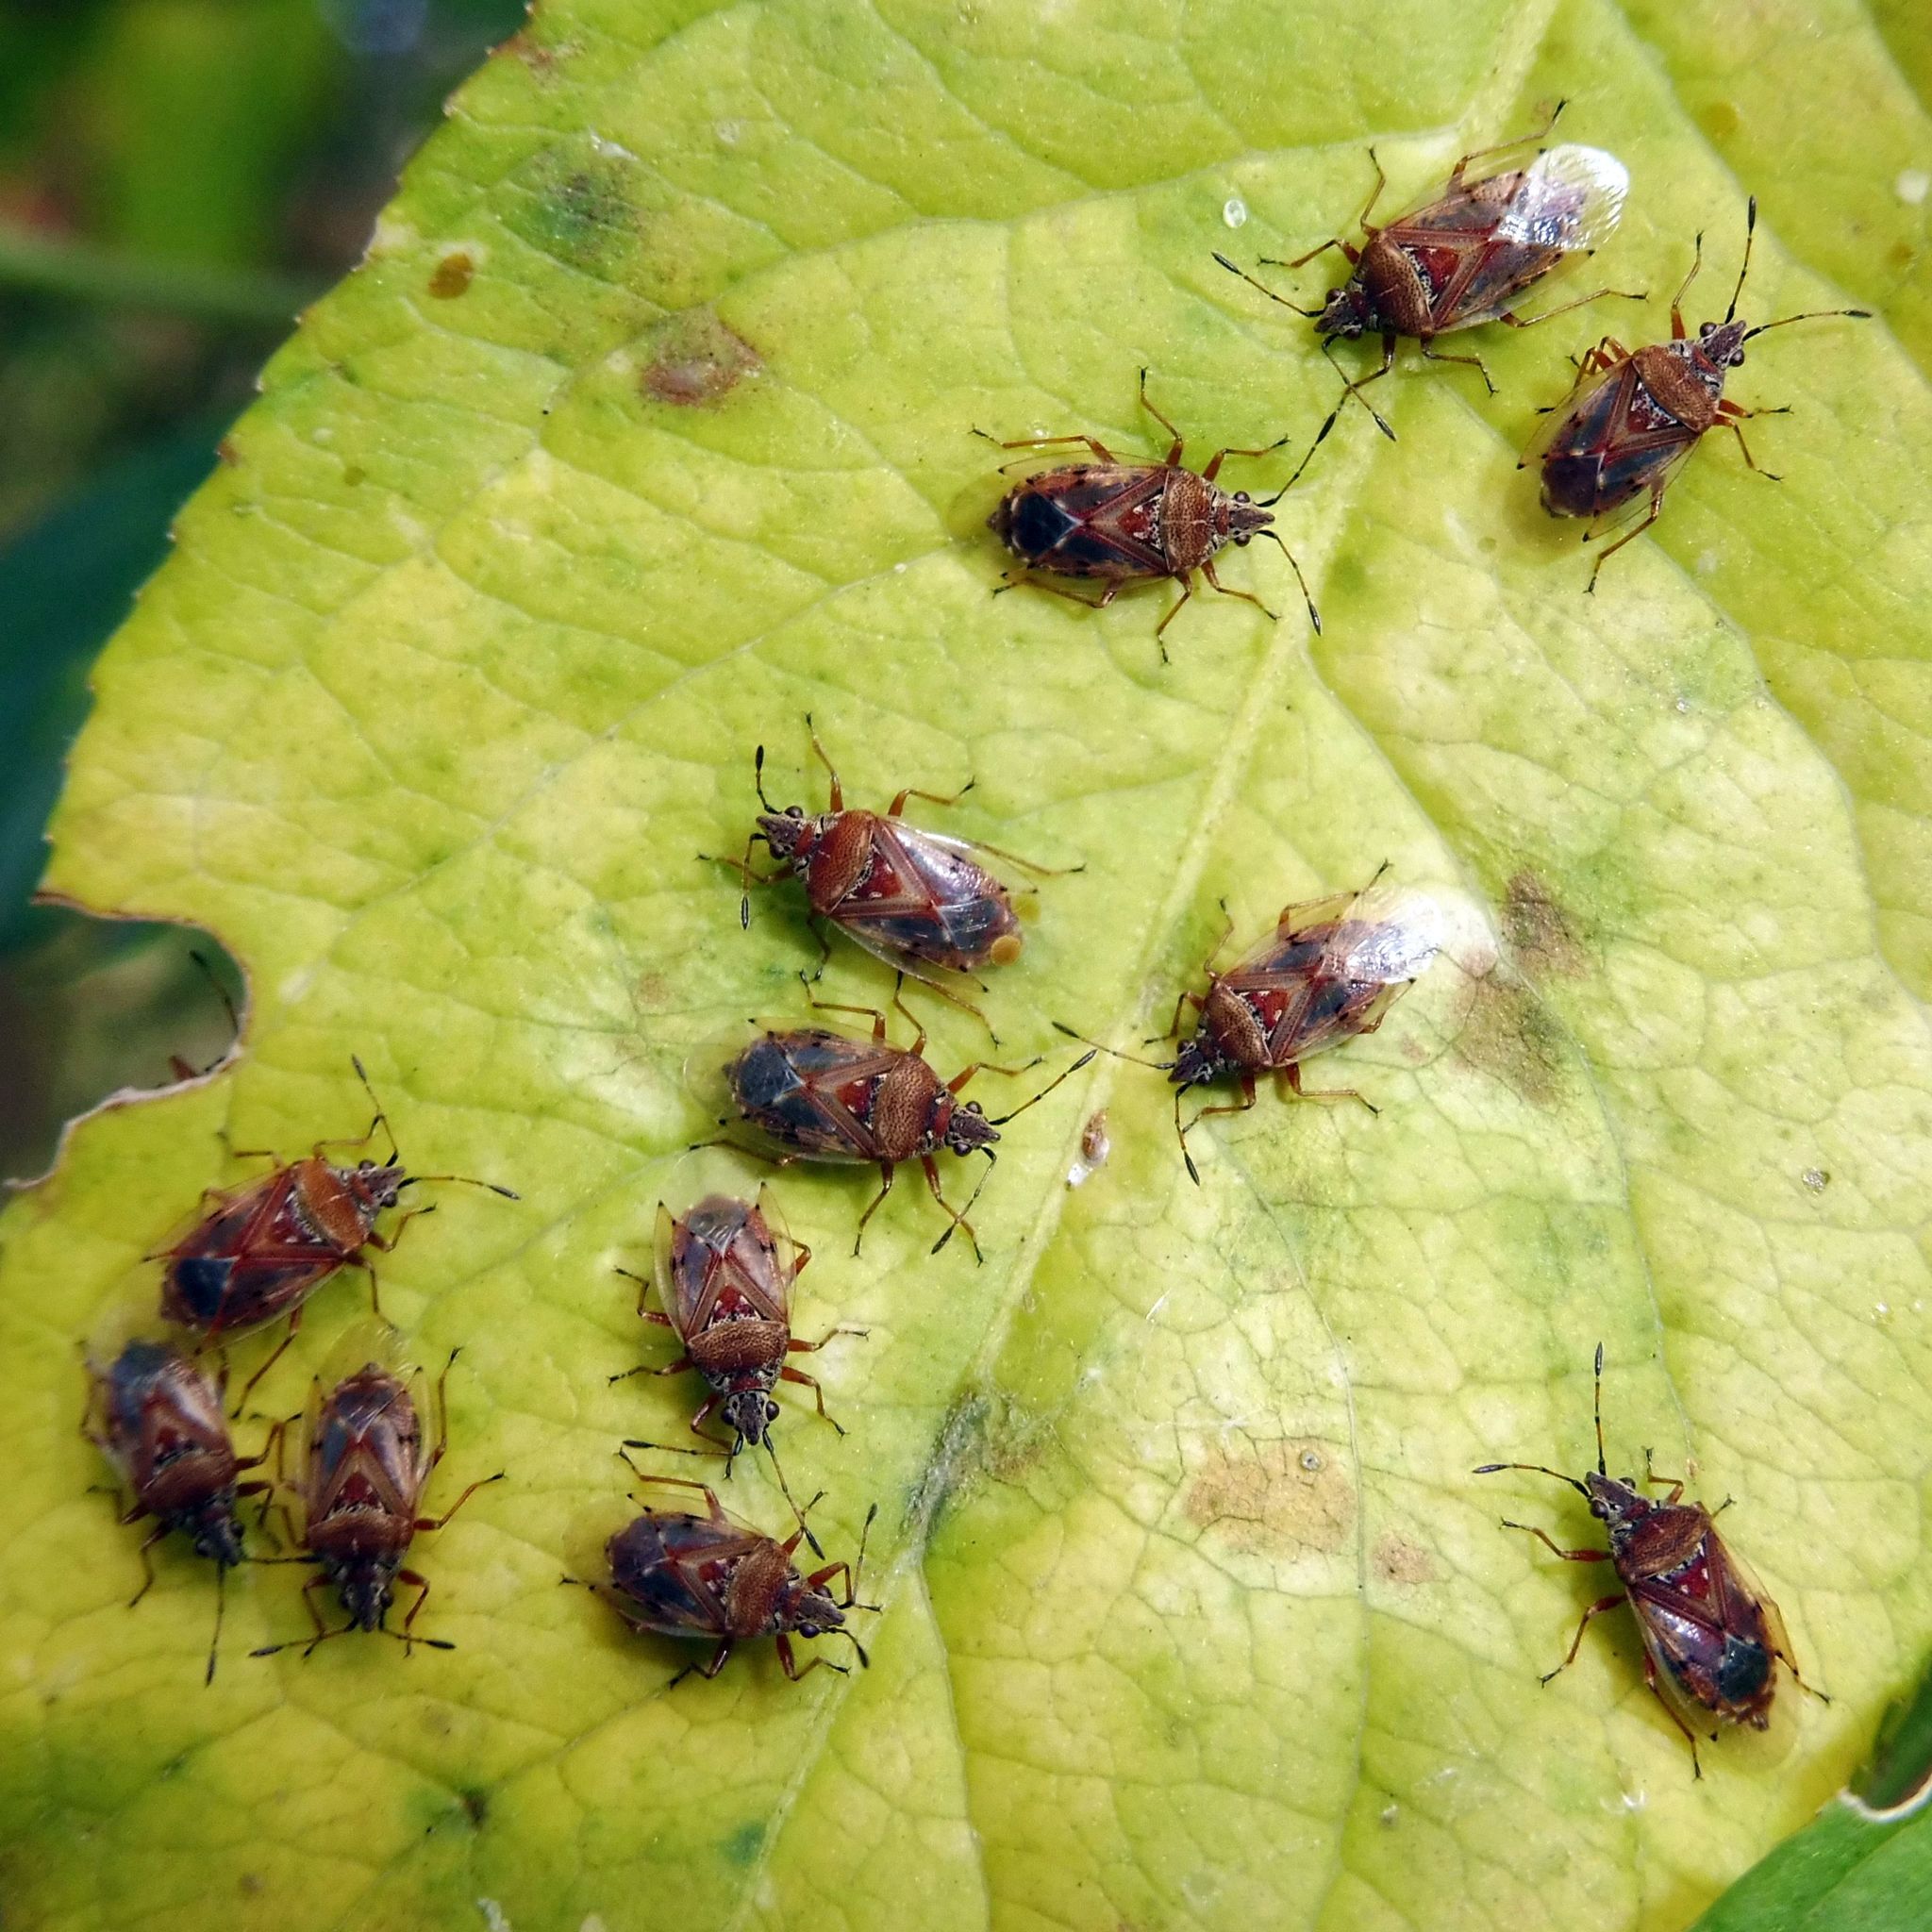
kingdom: Animalia
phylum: Arthropoda
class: Insecta
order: Hemiptera
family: Lygaeidae
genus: Kleidocerys
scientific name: Kleidocerys resedae
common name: Birch catkin bug
